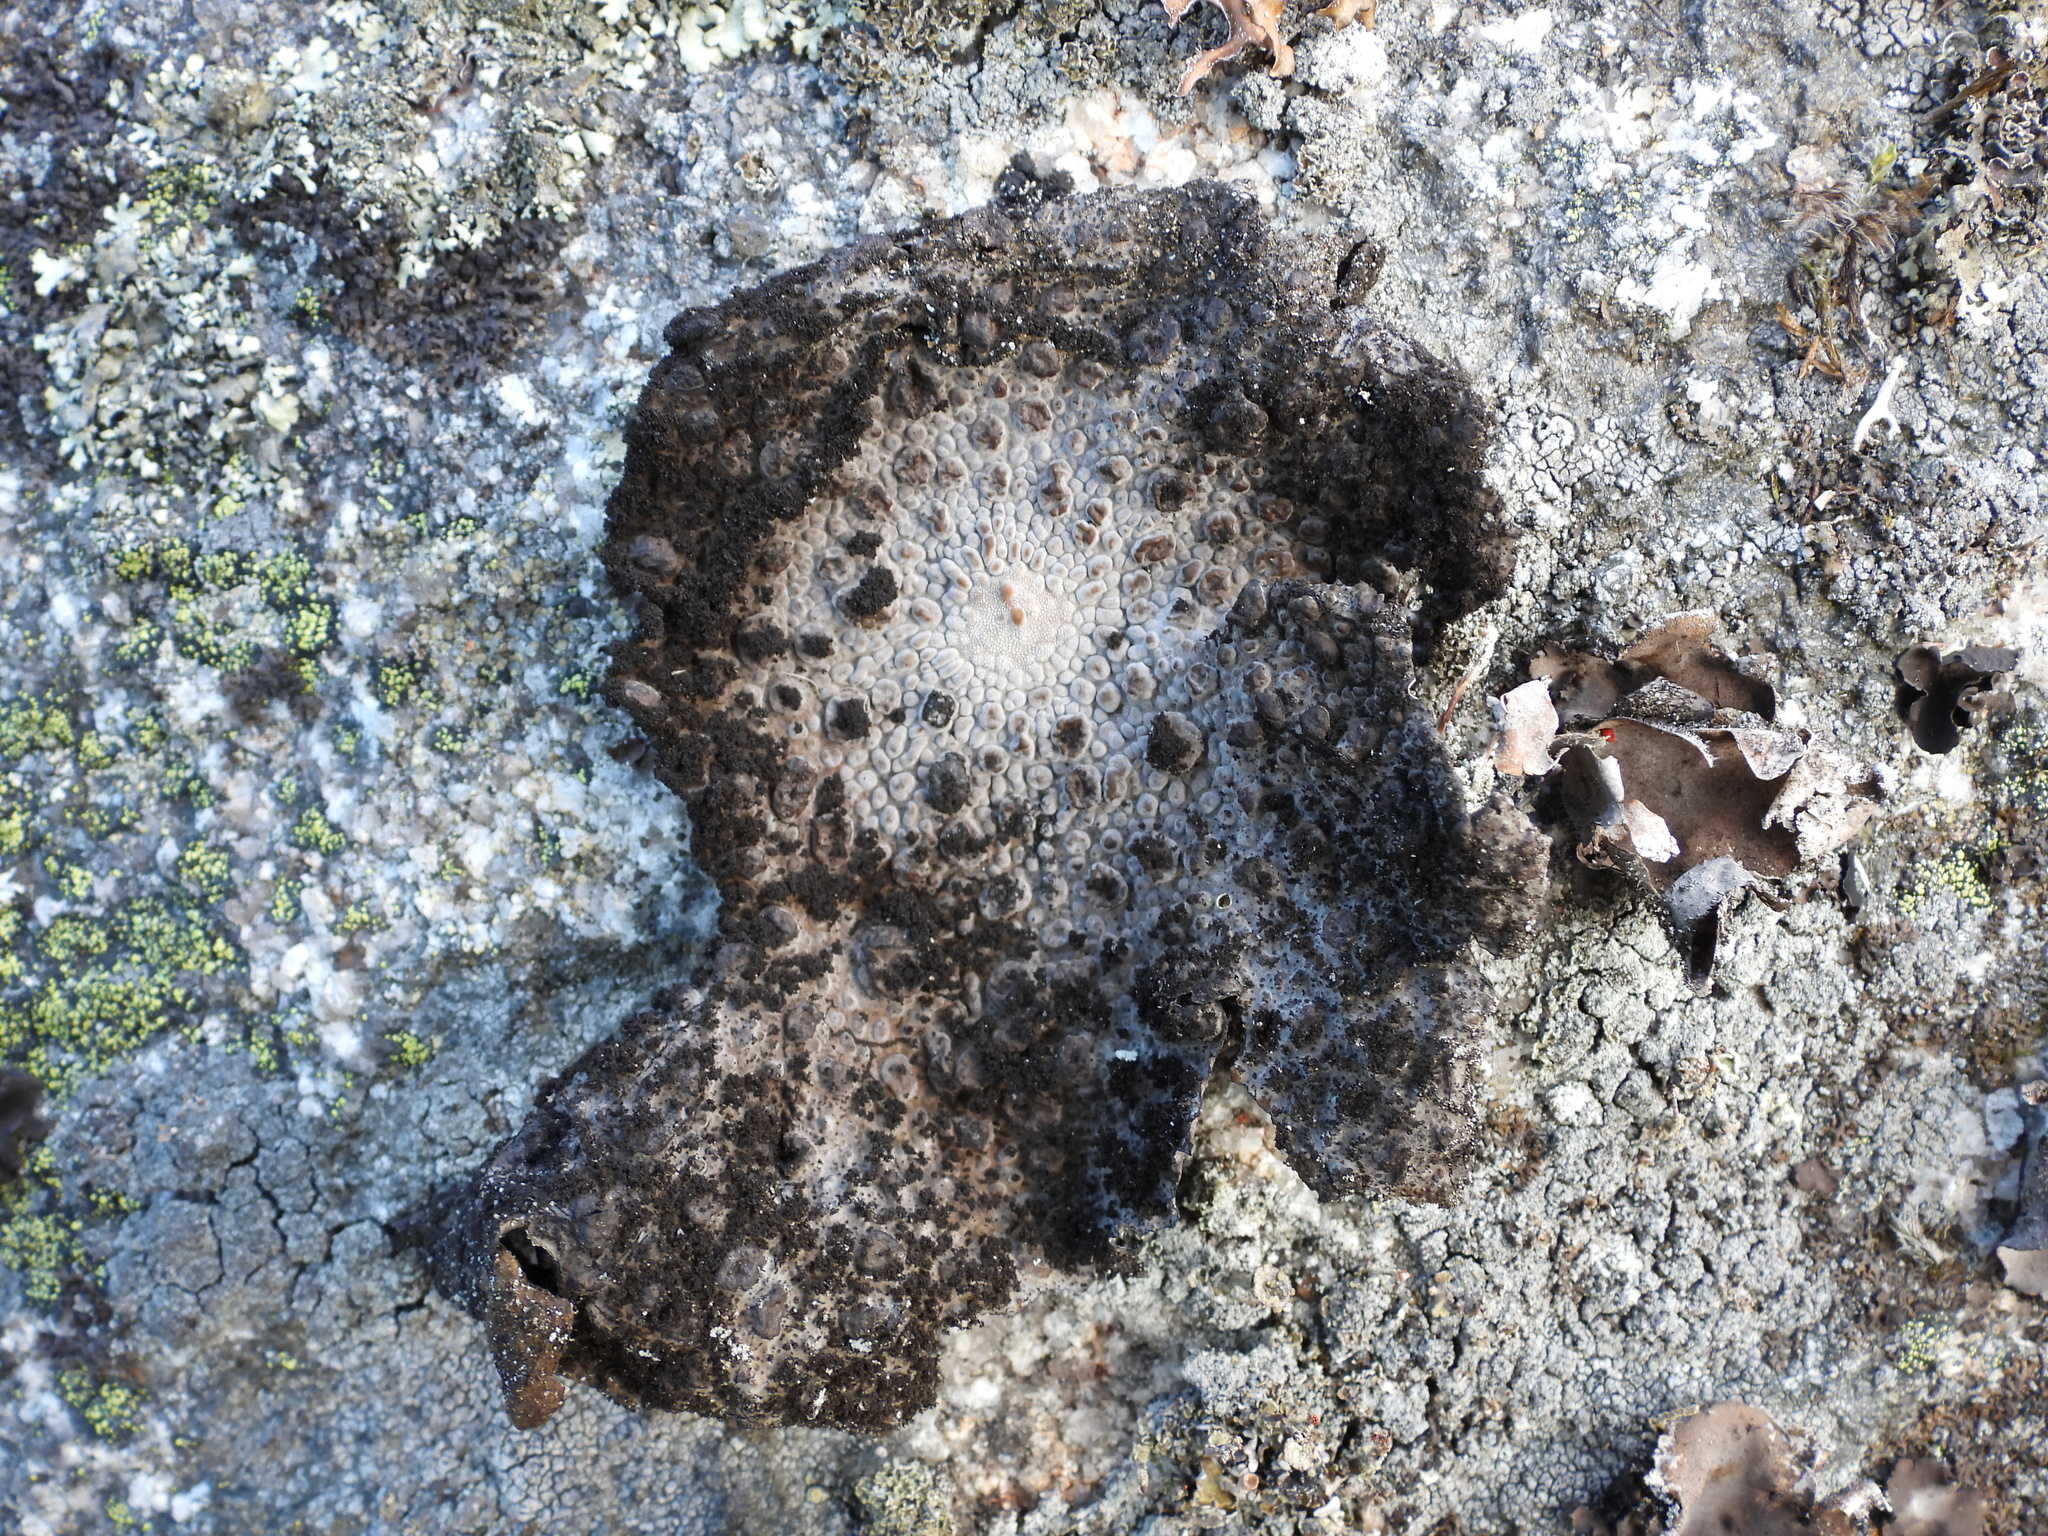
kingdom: Fungi
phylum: Ascomycota
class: Lecanoromycetes
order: Umbilicariales
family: Umbilicariaceae
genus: Lasallia
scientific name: Lasallia pustulata
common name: Blistered toadskin lichen
